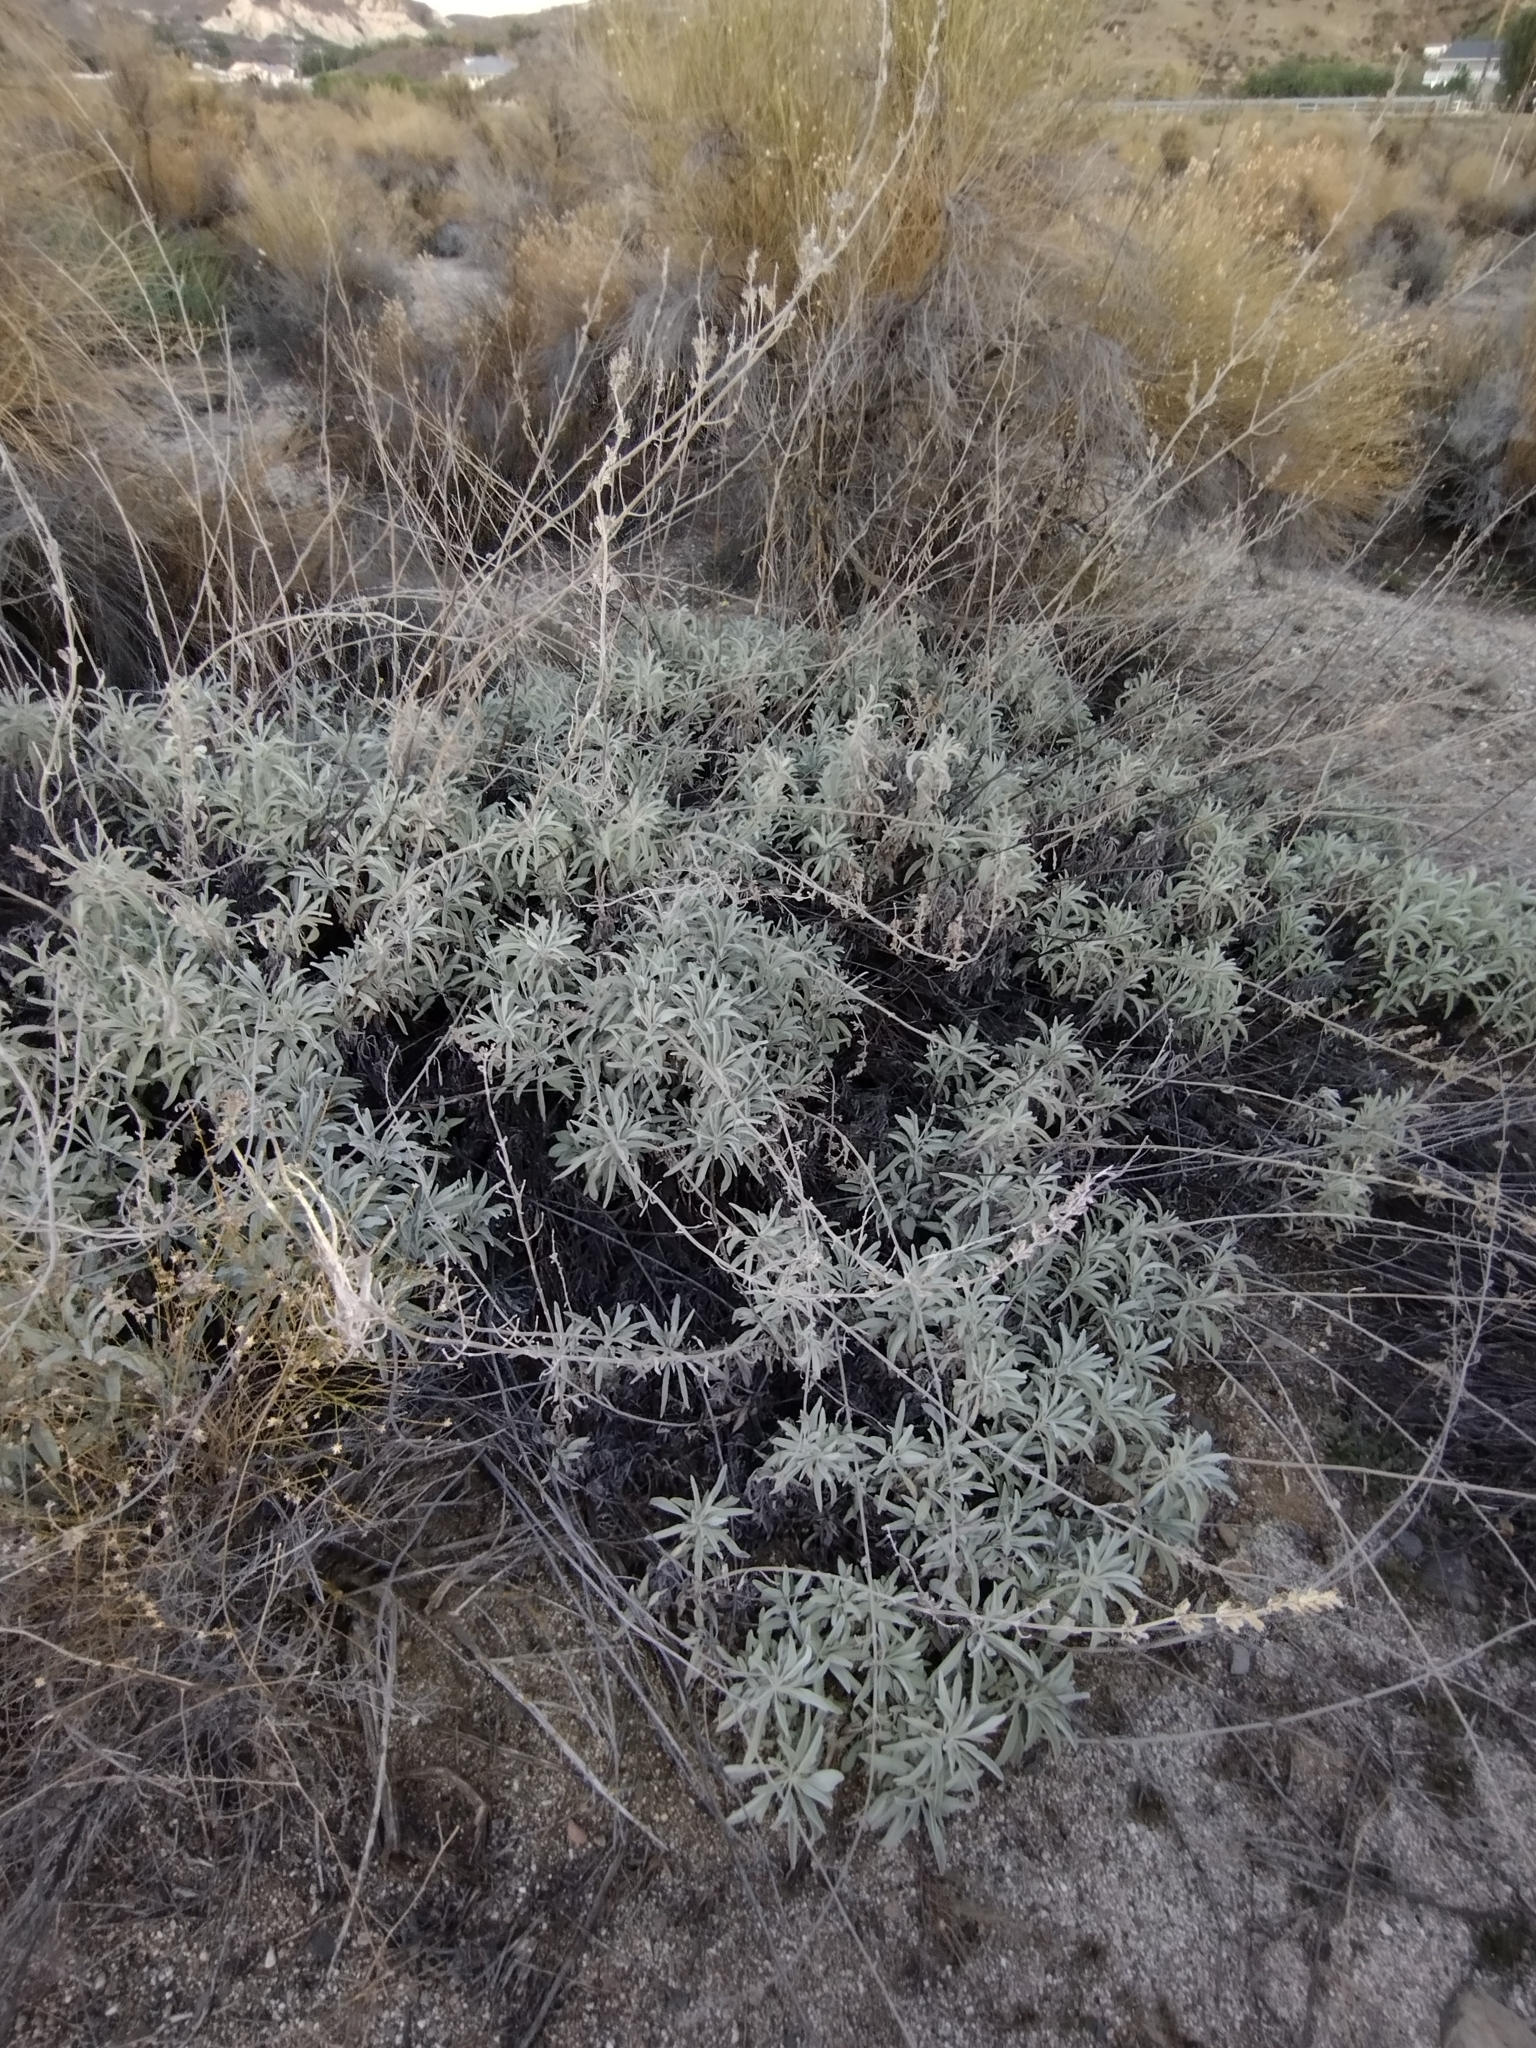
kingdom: Plantae
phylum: Tracheophyta
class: Magnoliopsida
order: Lamiales
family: Lamiaceae
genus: Salvia
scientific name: Salvia apiana
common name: White sage
